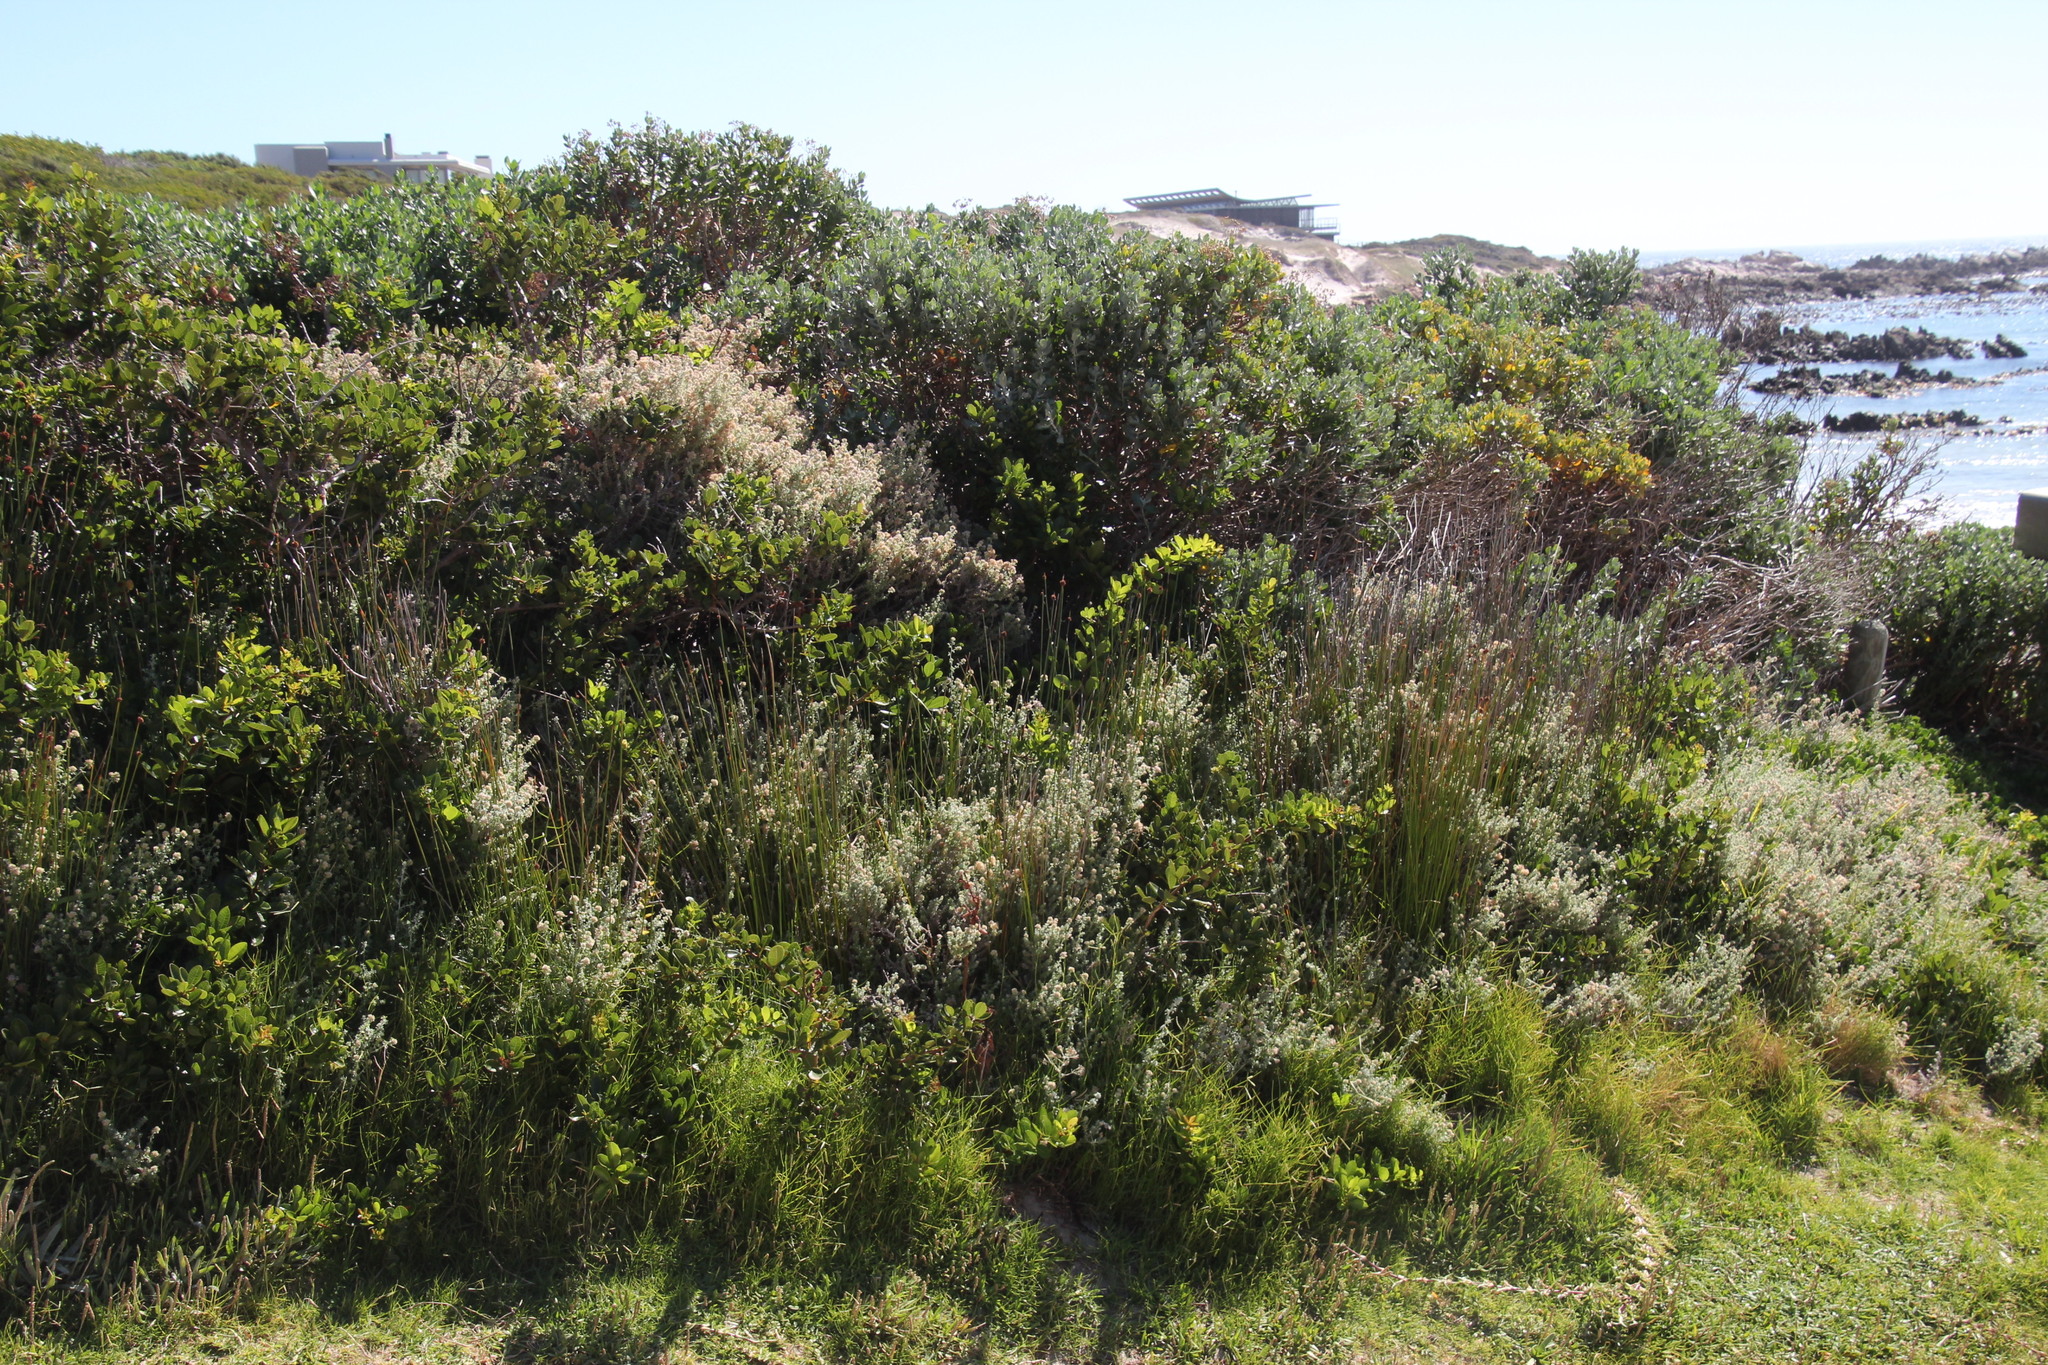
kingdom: Plantae
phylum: Tracheophyta
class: Liliopsida
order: Poales
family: Cyperaceae
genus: Ficinia
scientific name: Ficinia nodosa
